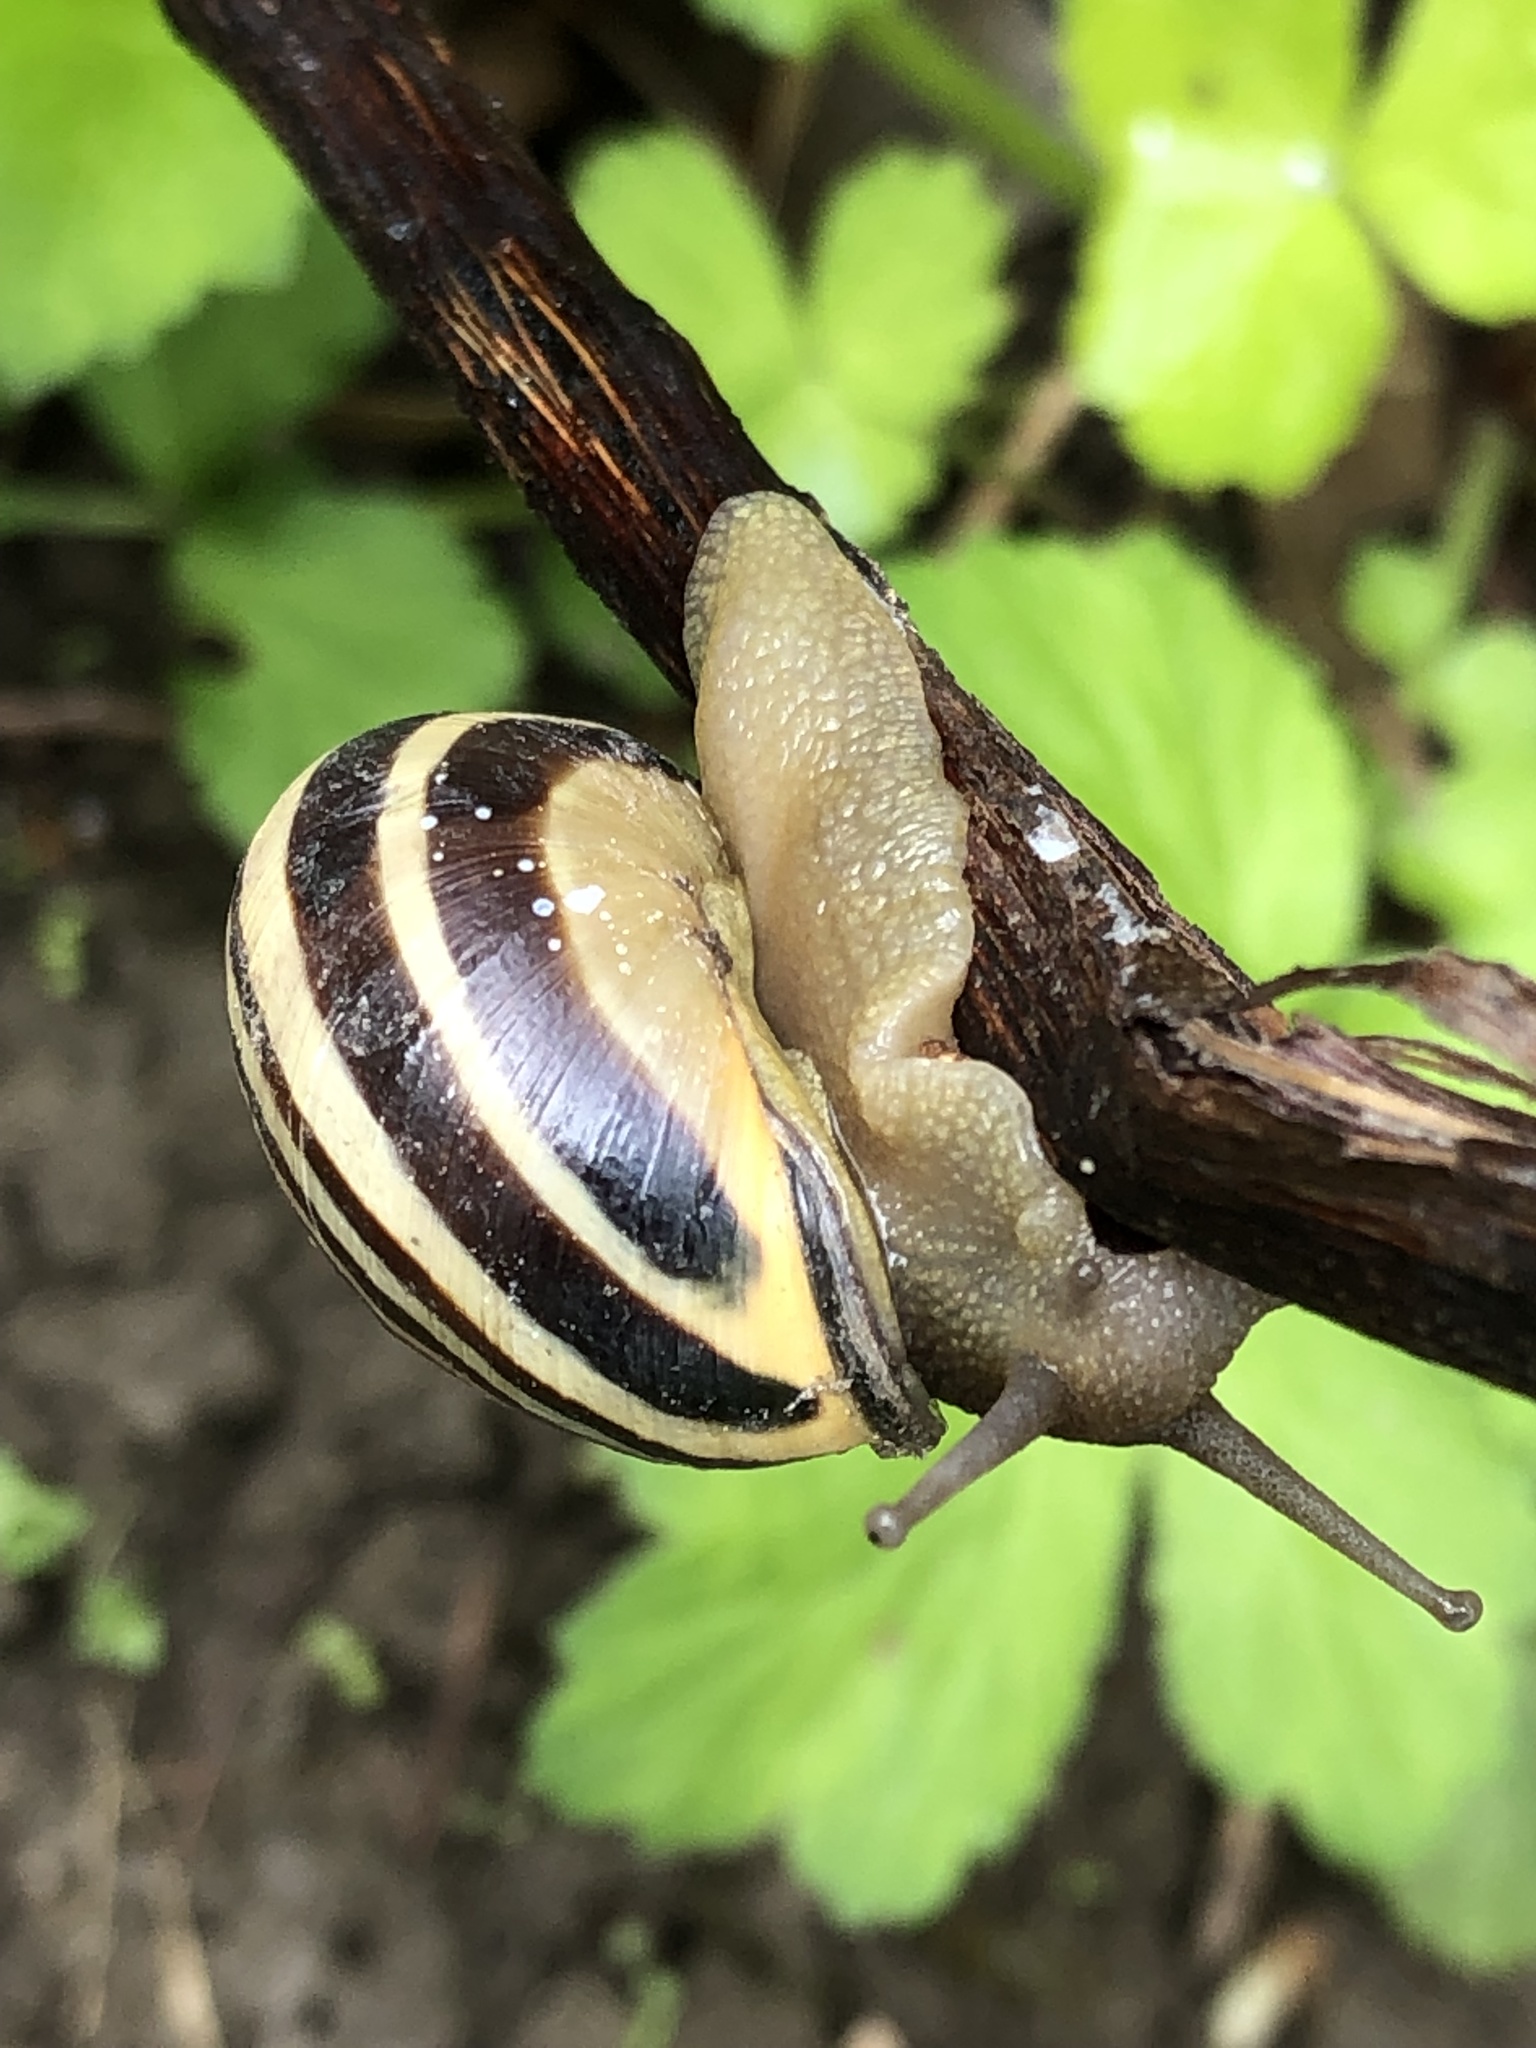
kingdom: Animalia
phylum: Mollusca
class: Gastropoda
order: Stylommatophora
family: Helicidae
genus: Cepaea
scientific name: Cepaea nemoralis
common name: Grovesnail
